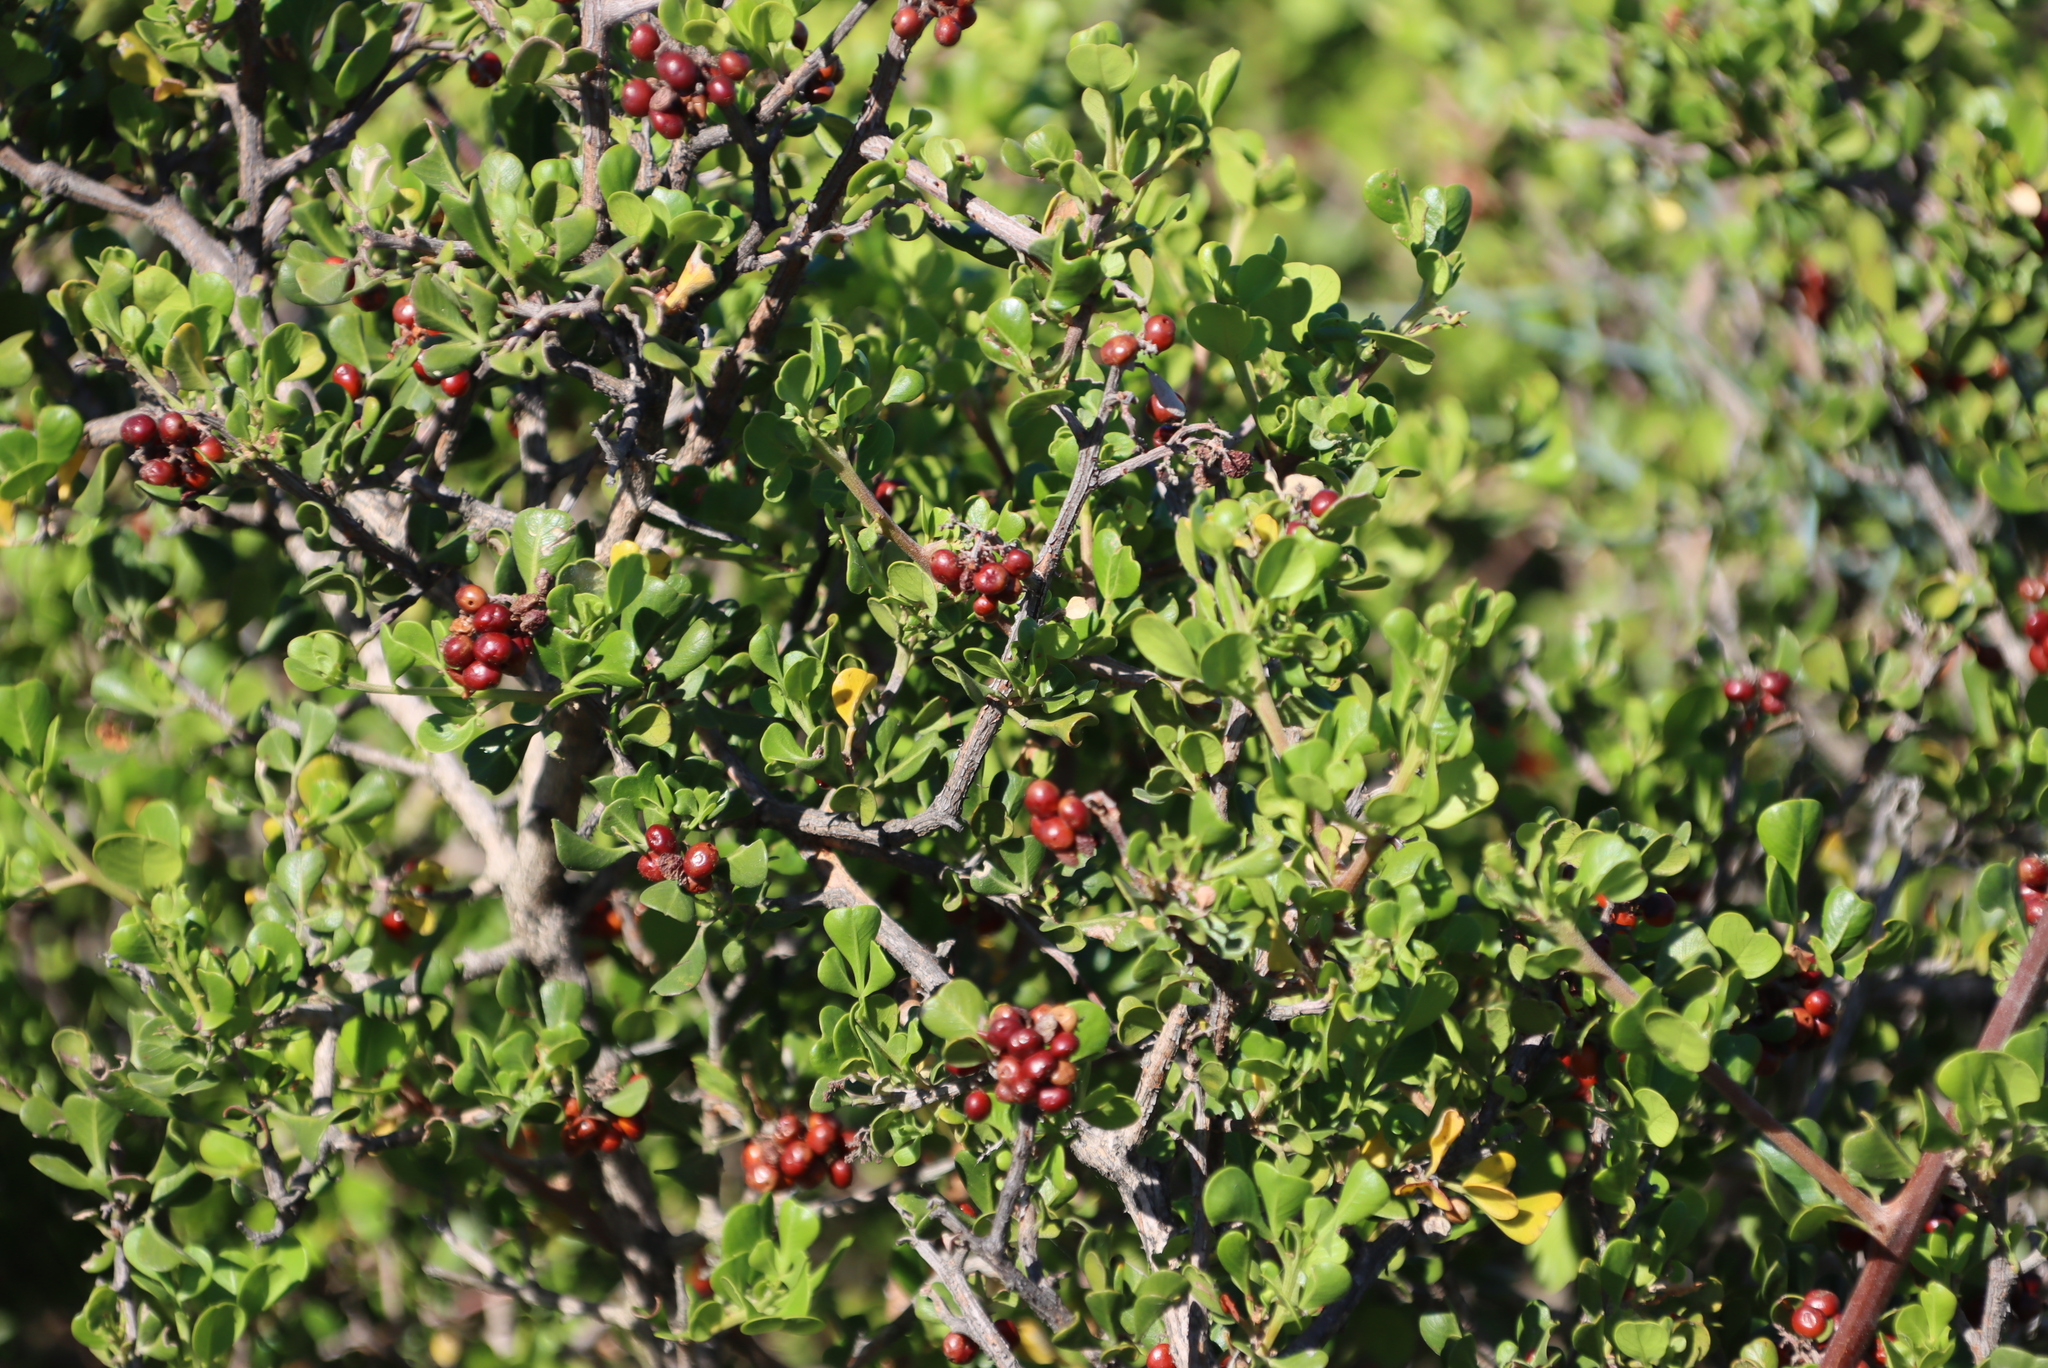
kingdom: Plantae
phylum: Tracheophyta
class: Magnoliopsida
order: Sapindales
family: Anacardiaceae
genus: Searsia
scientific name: Searsia glauca
